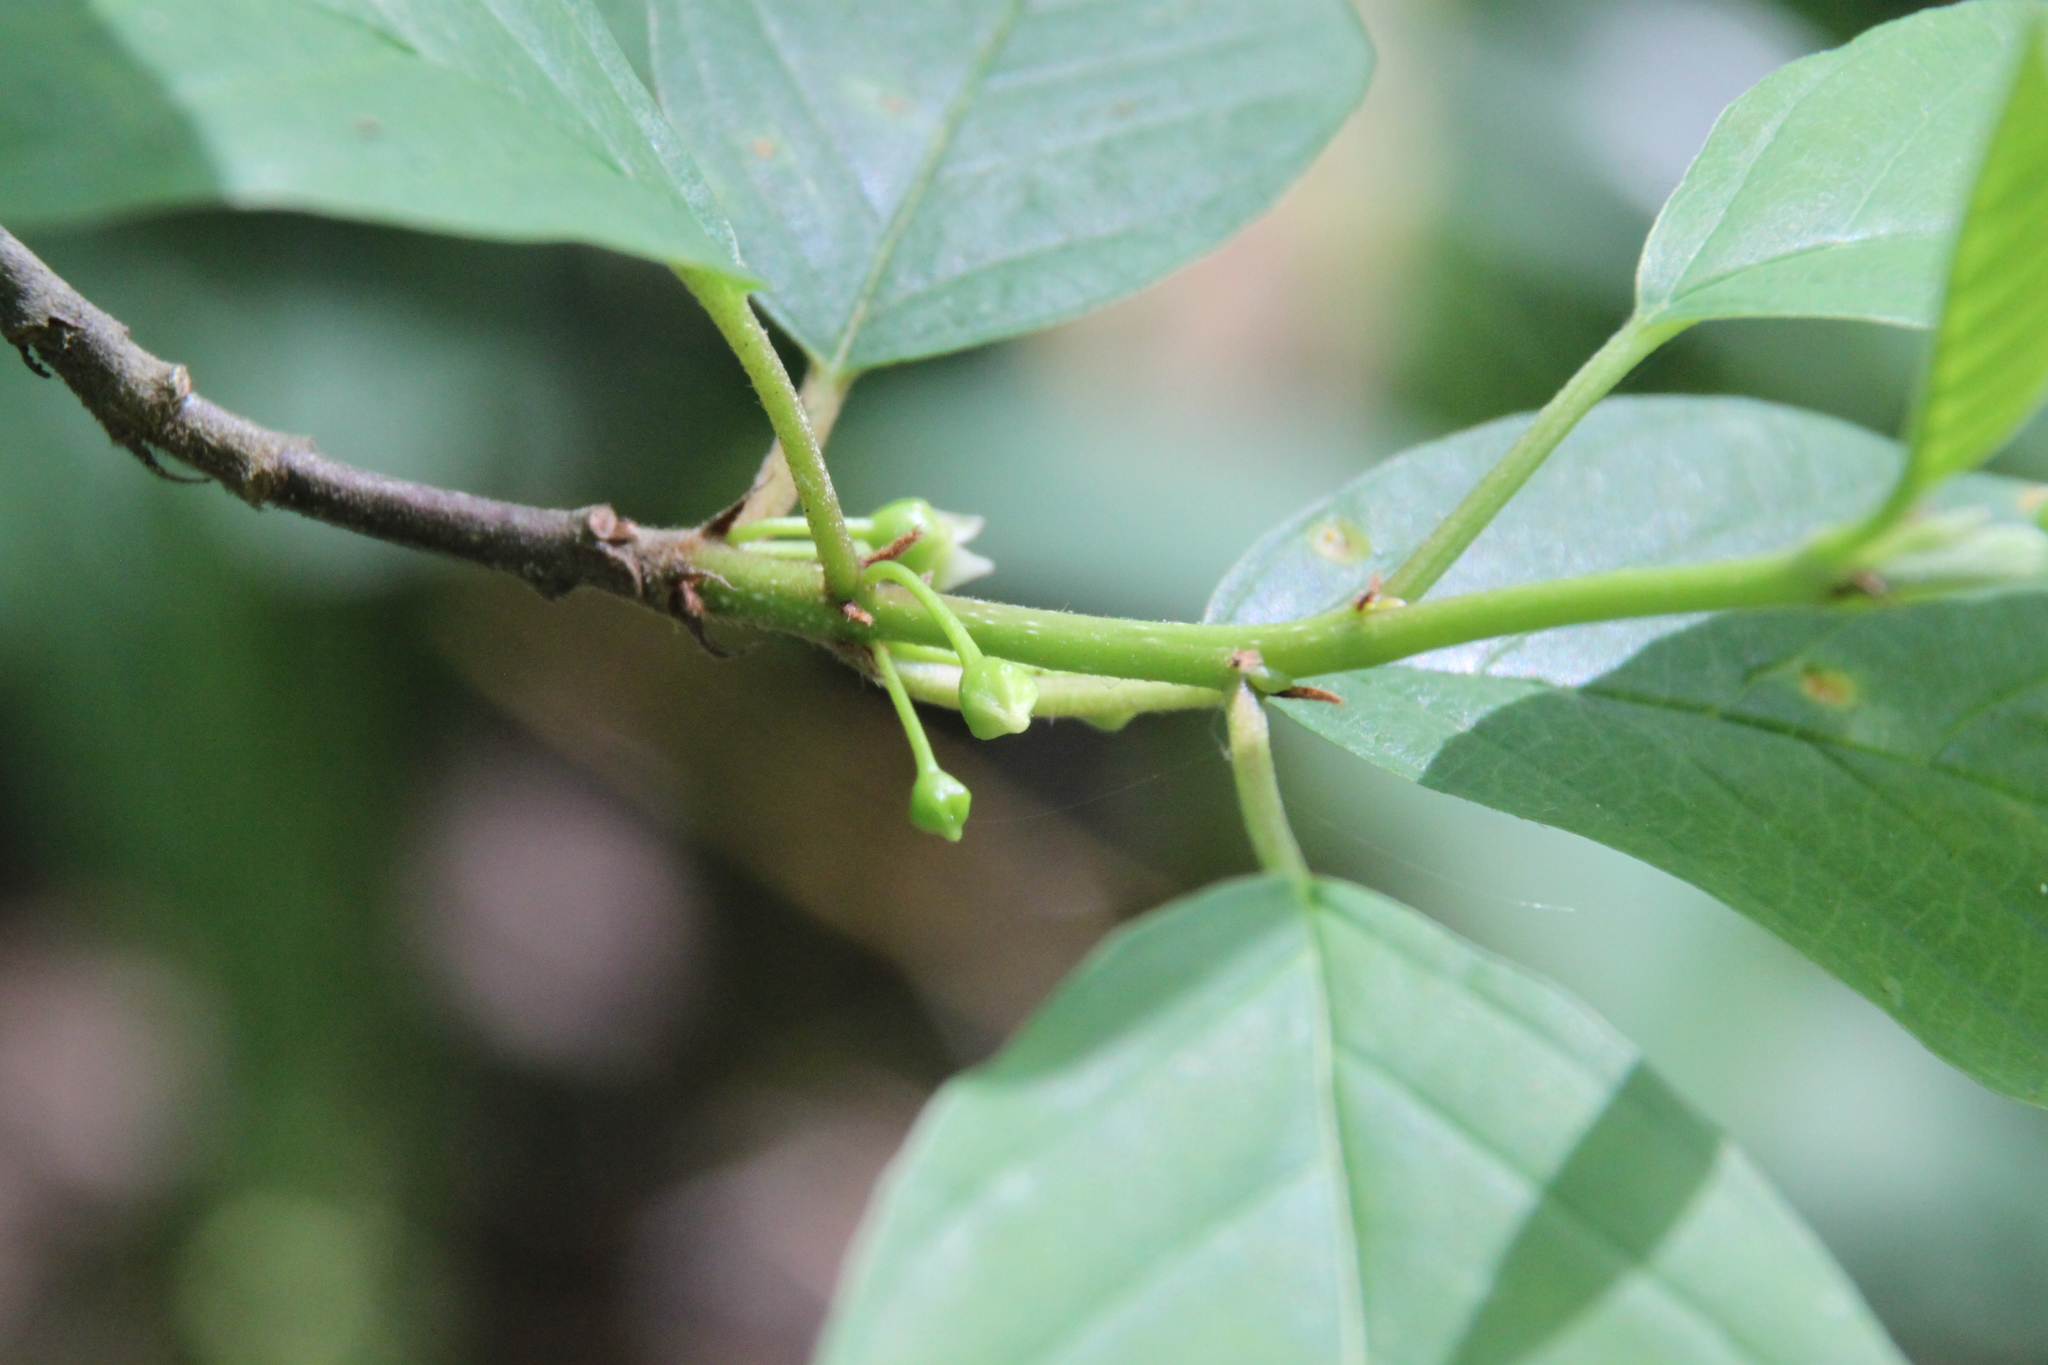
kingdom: Plantae
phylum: Tracheophyta
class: Magnoliopsida
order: Rosales
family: Rhamnaceae
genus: Frangula
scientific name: Frangula alnus
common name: Alder buckthorn
